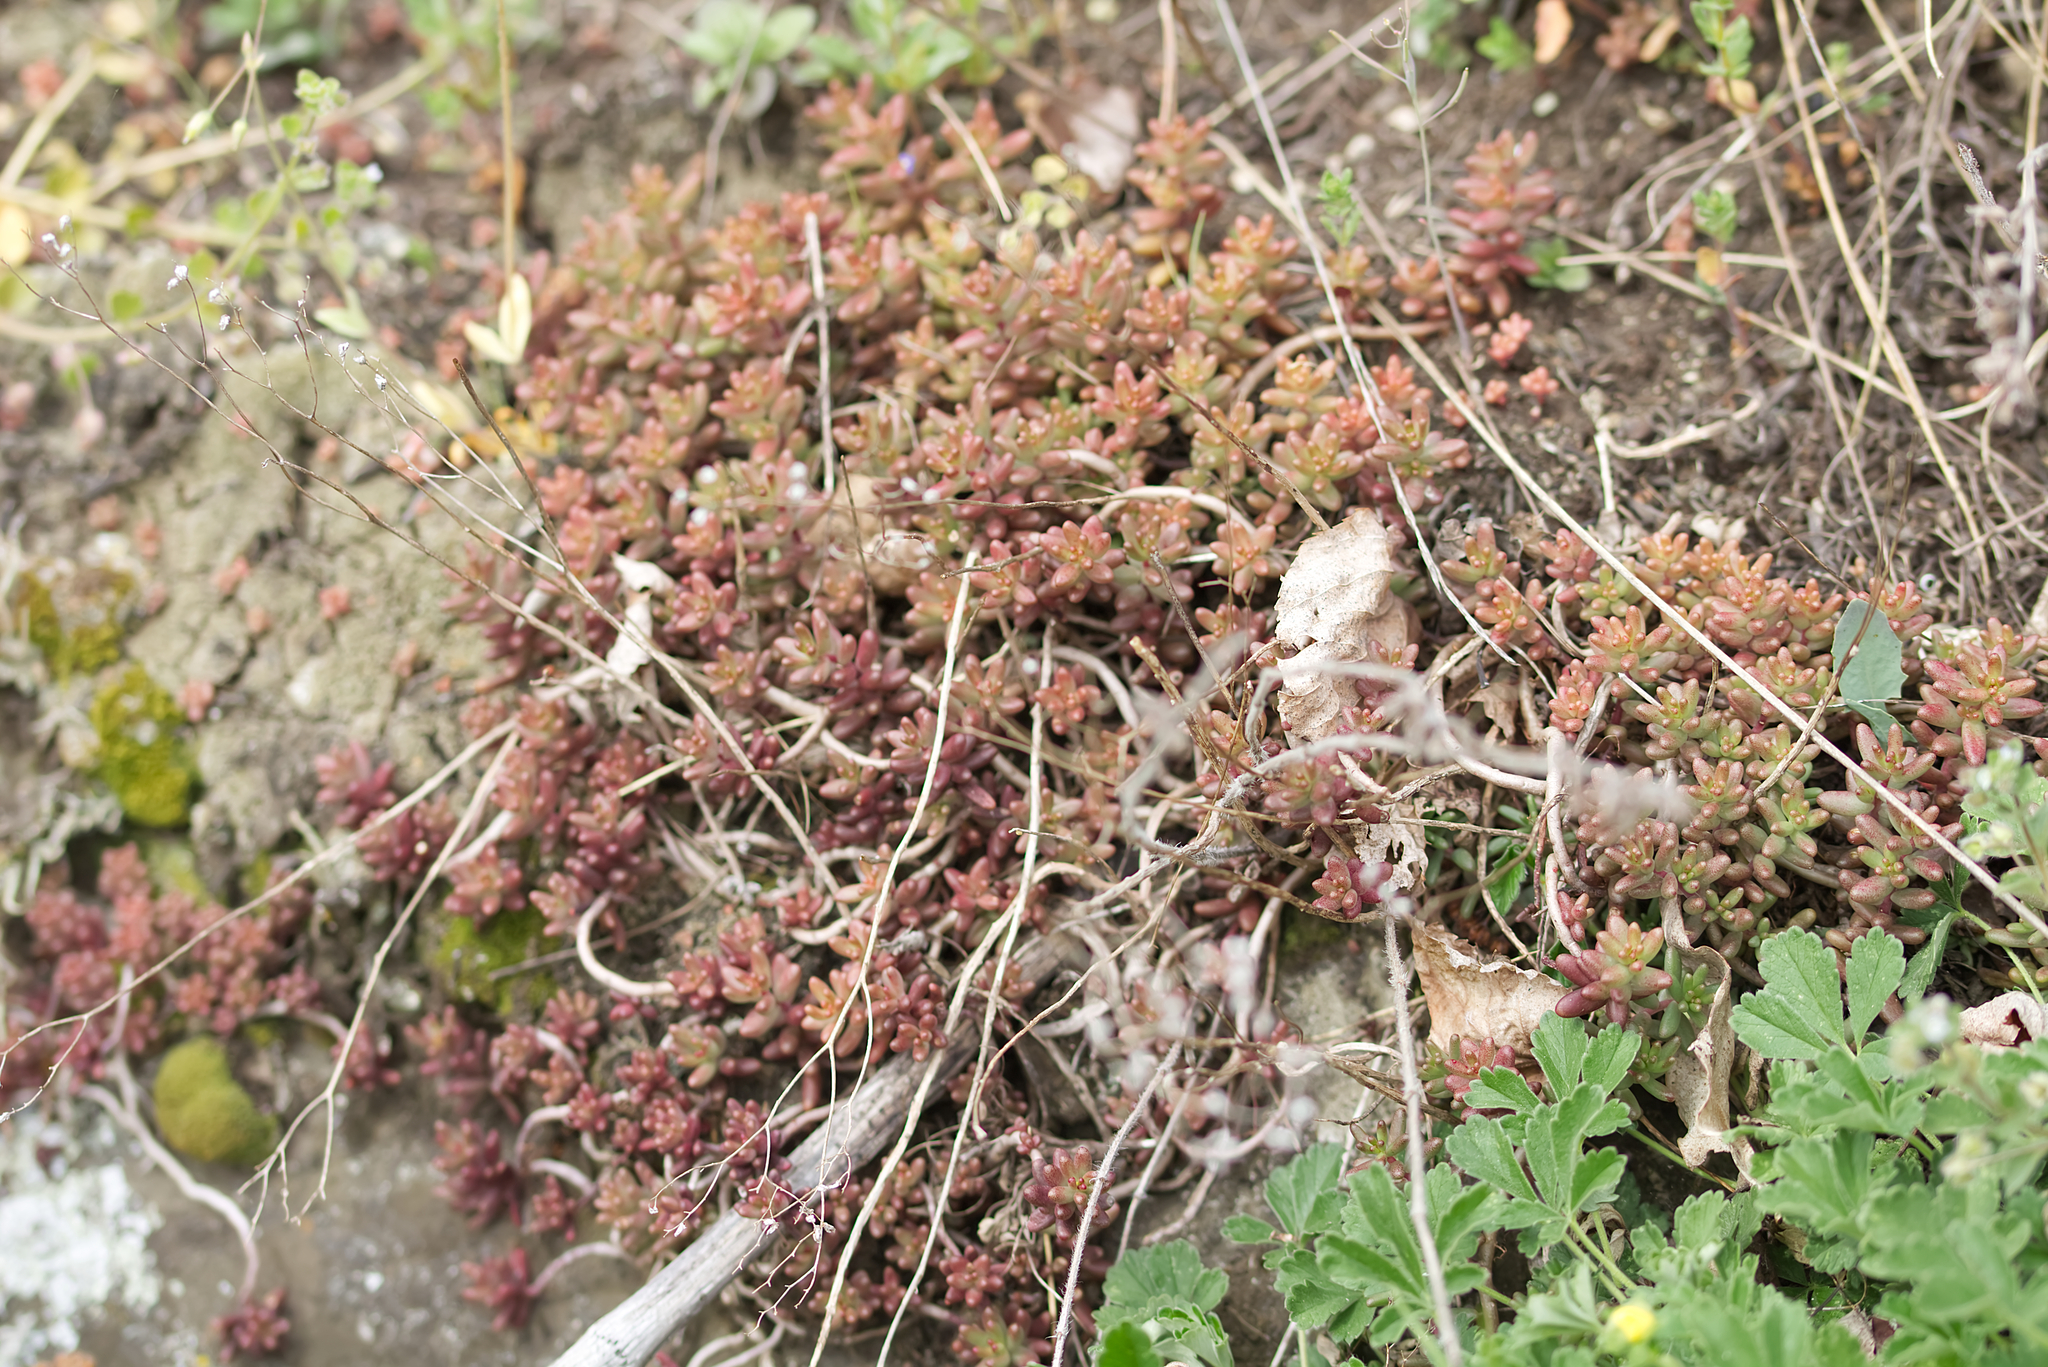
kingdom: Plantae
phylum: Tracheophyta
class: Magnoliopsida
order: Saxifragales
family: Crassulaceae
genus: Sedum
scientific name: Sedum album
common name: White stonecrop
